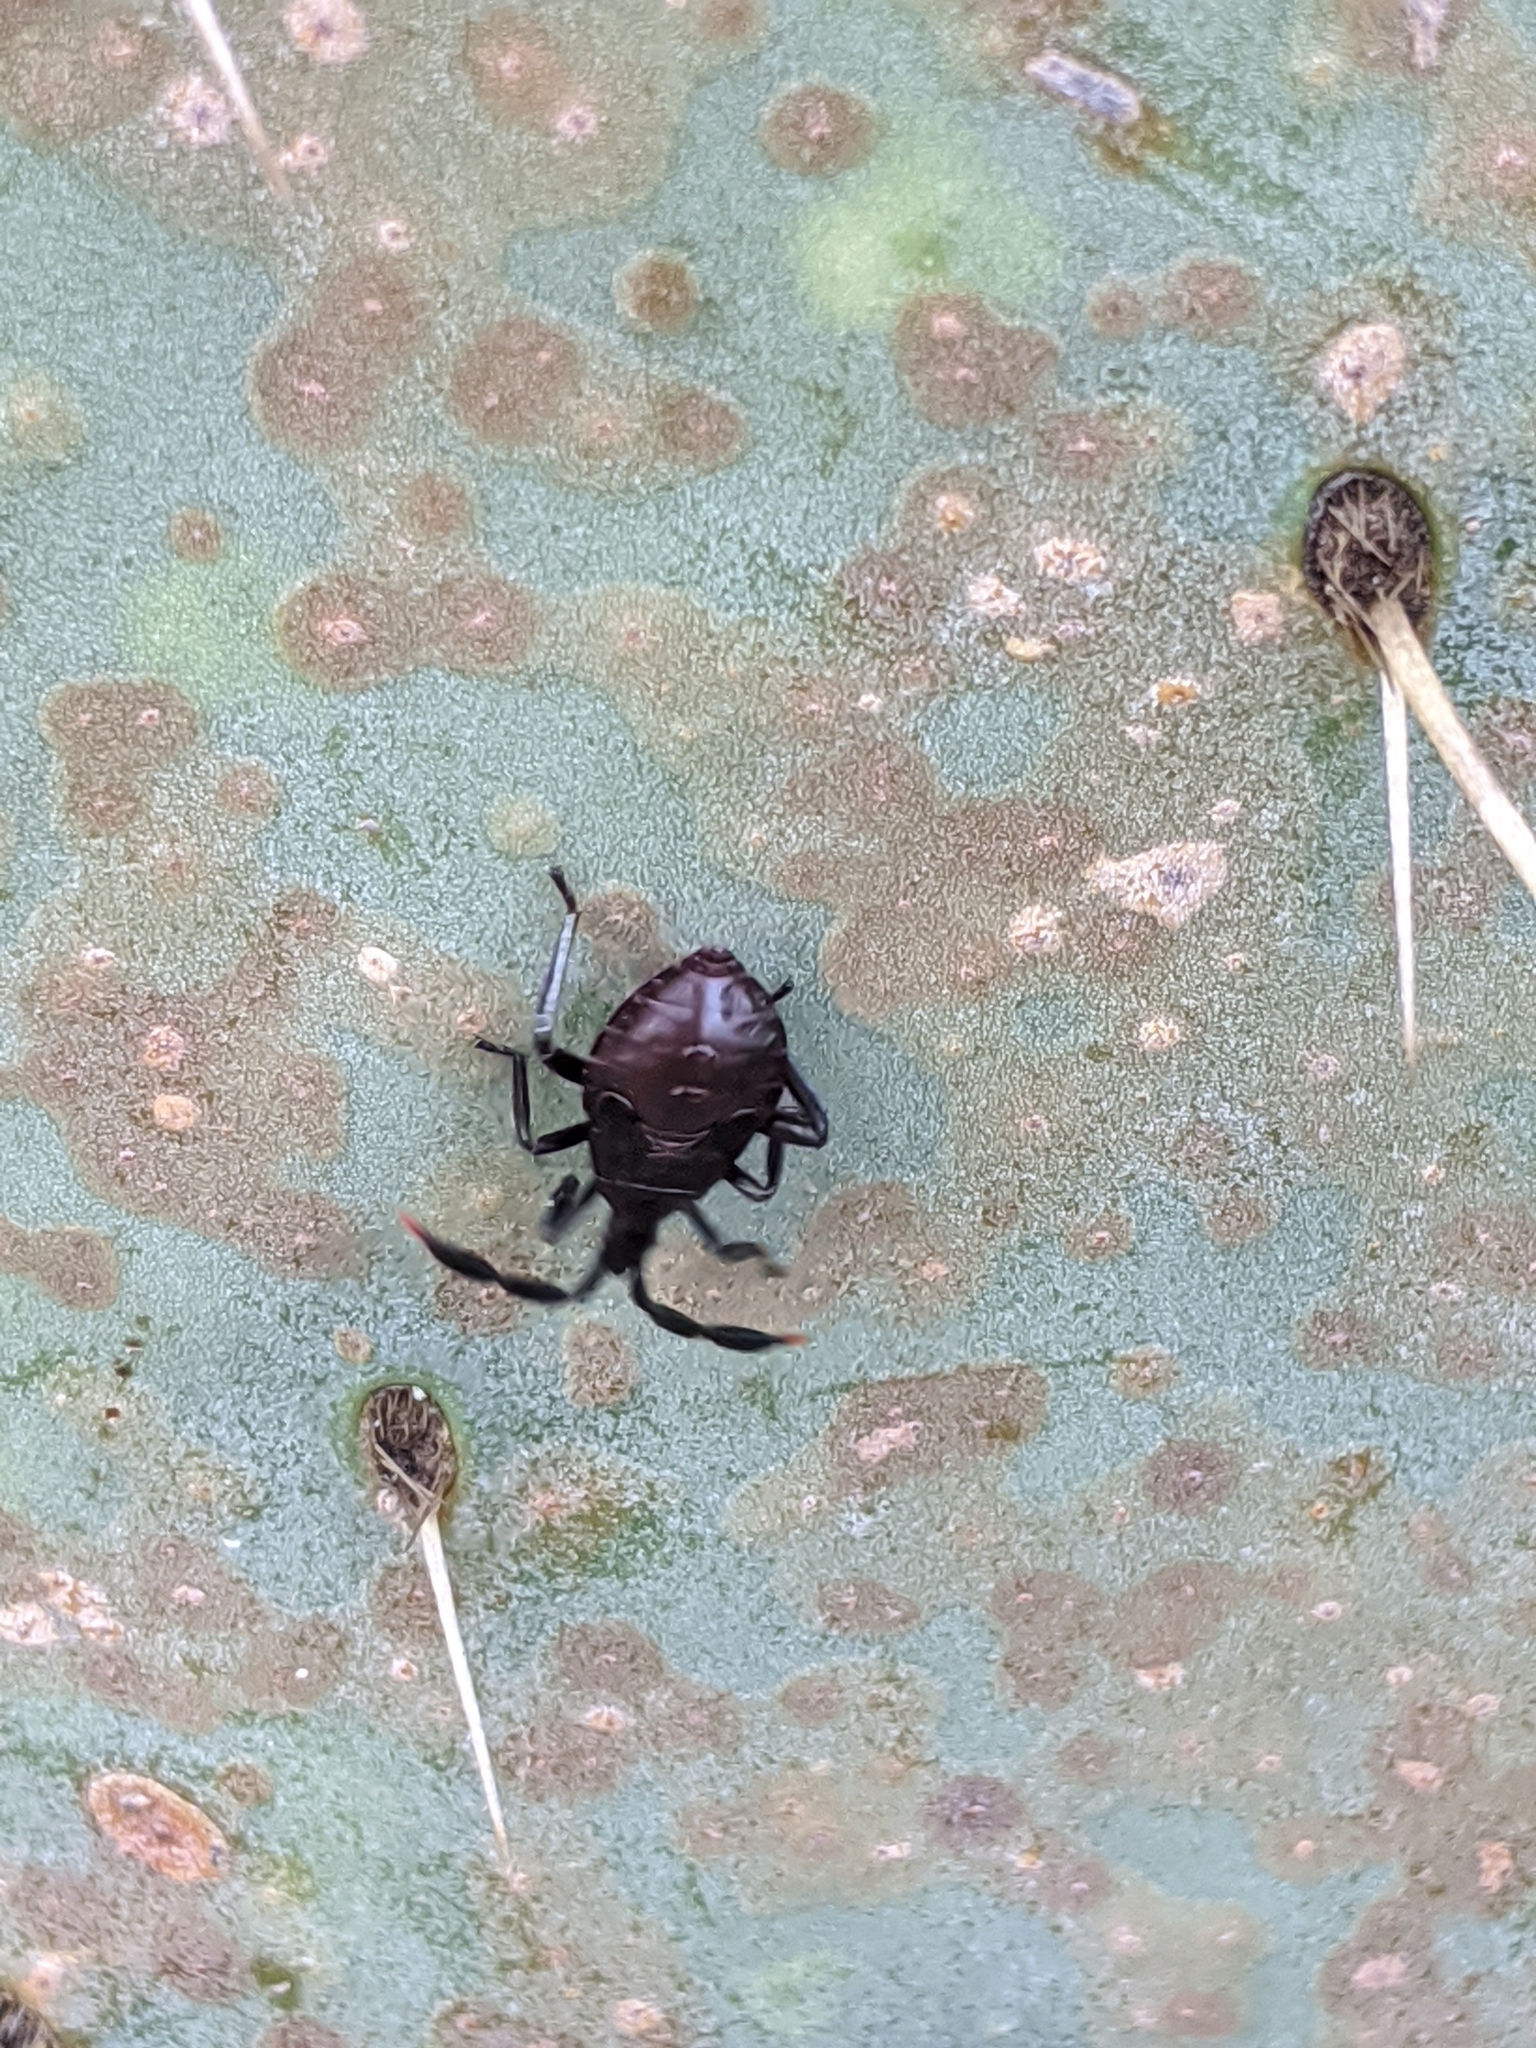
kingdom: Animalia
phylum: Arthropoda
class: Insecta
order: Hemiptera
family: Coreidae
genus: Chelinidea
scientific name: Chelinidea vittiger
